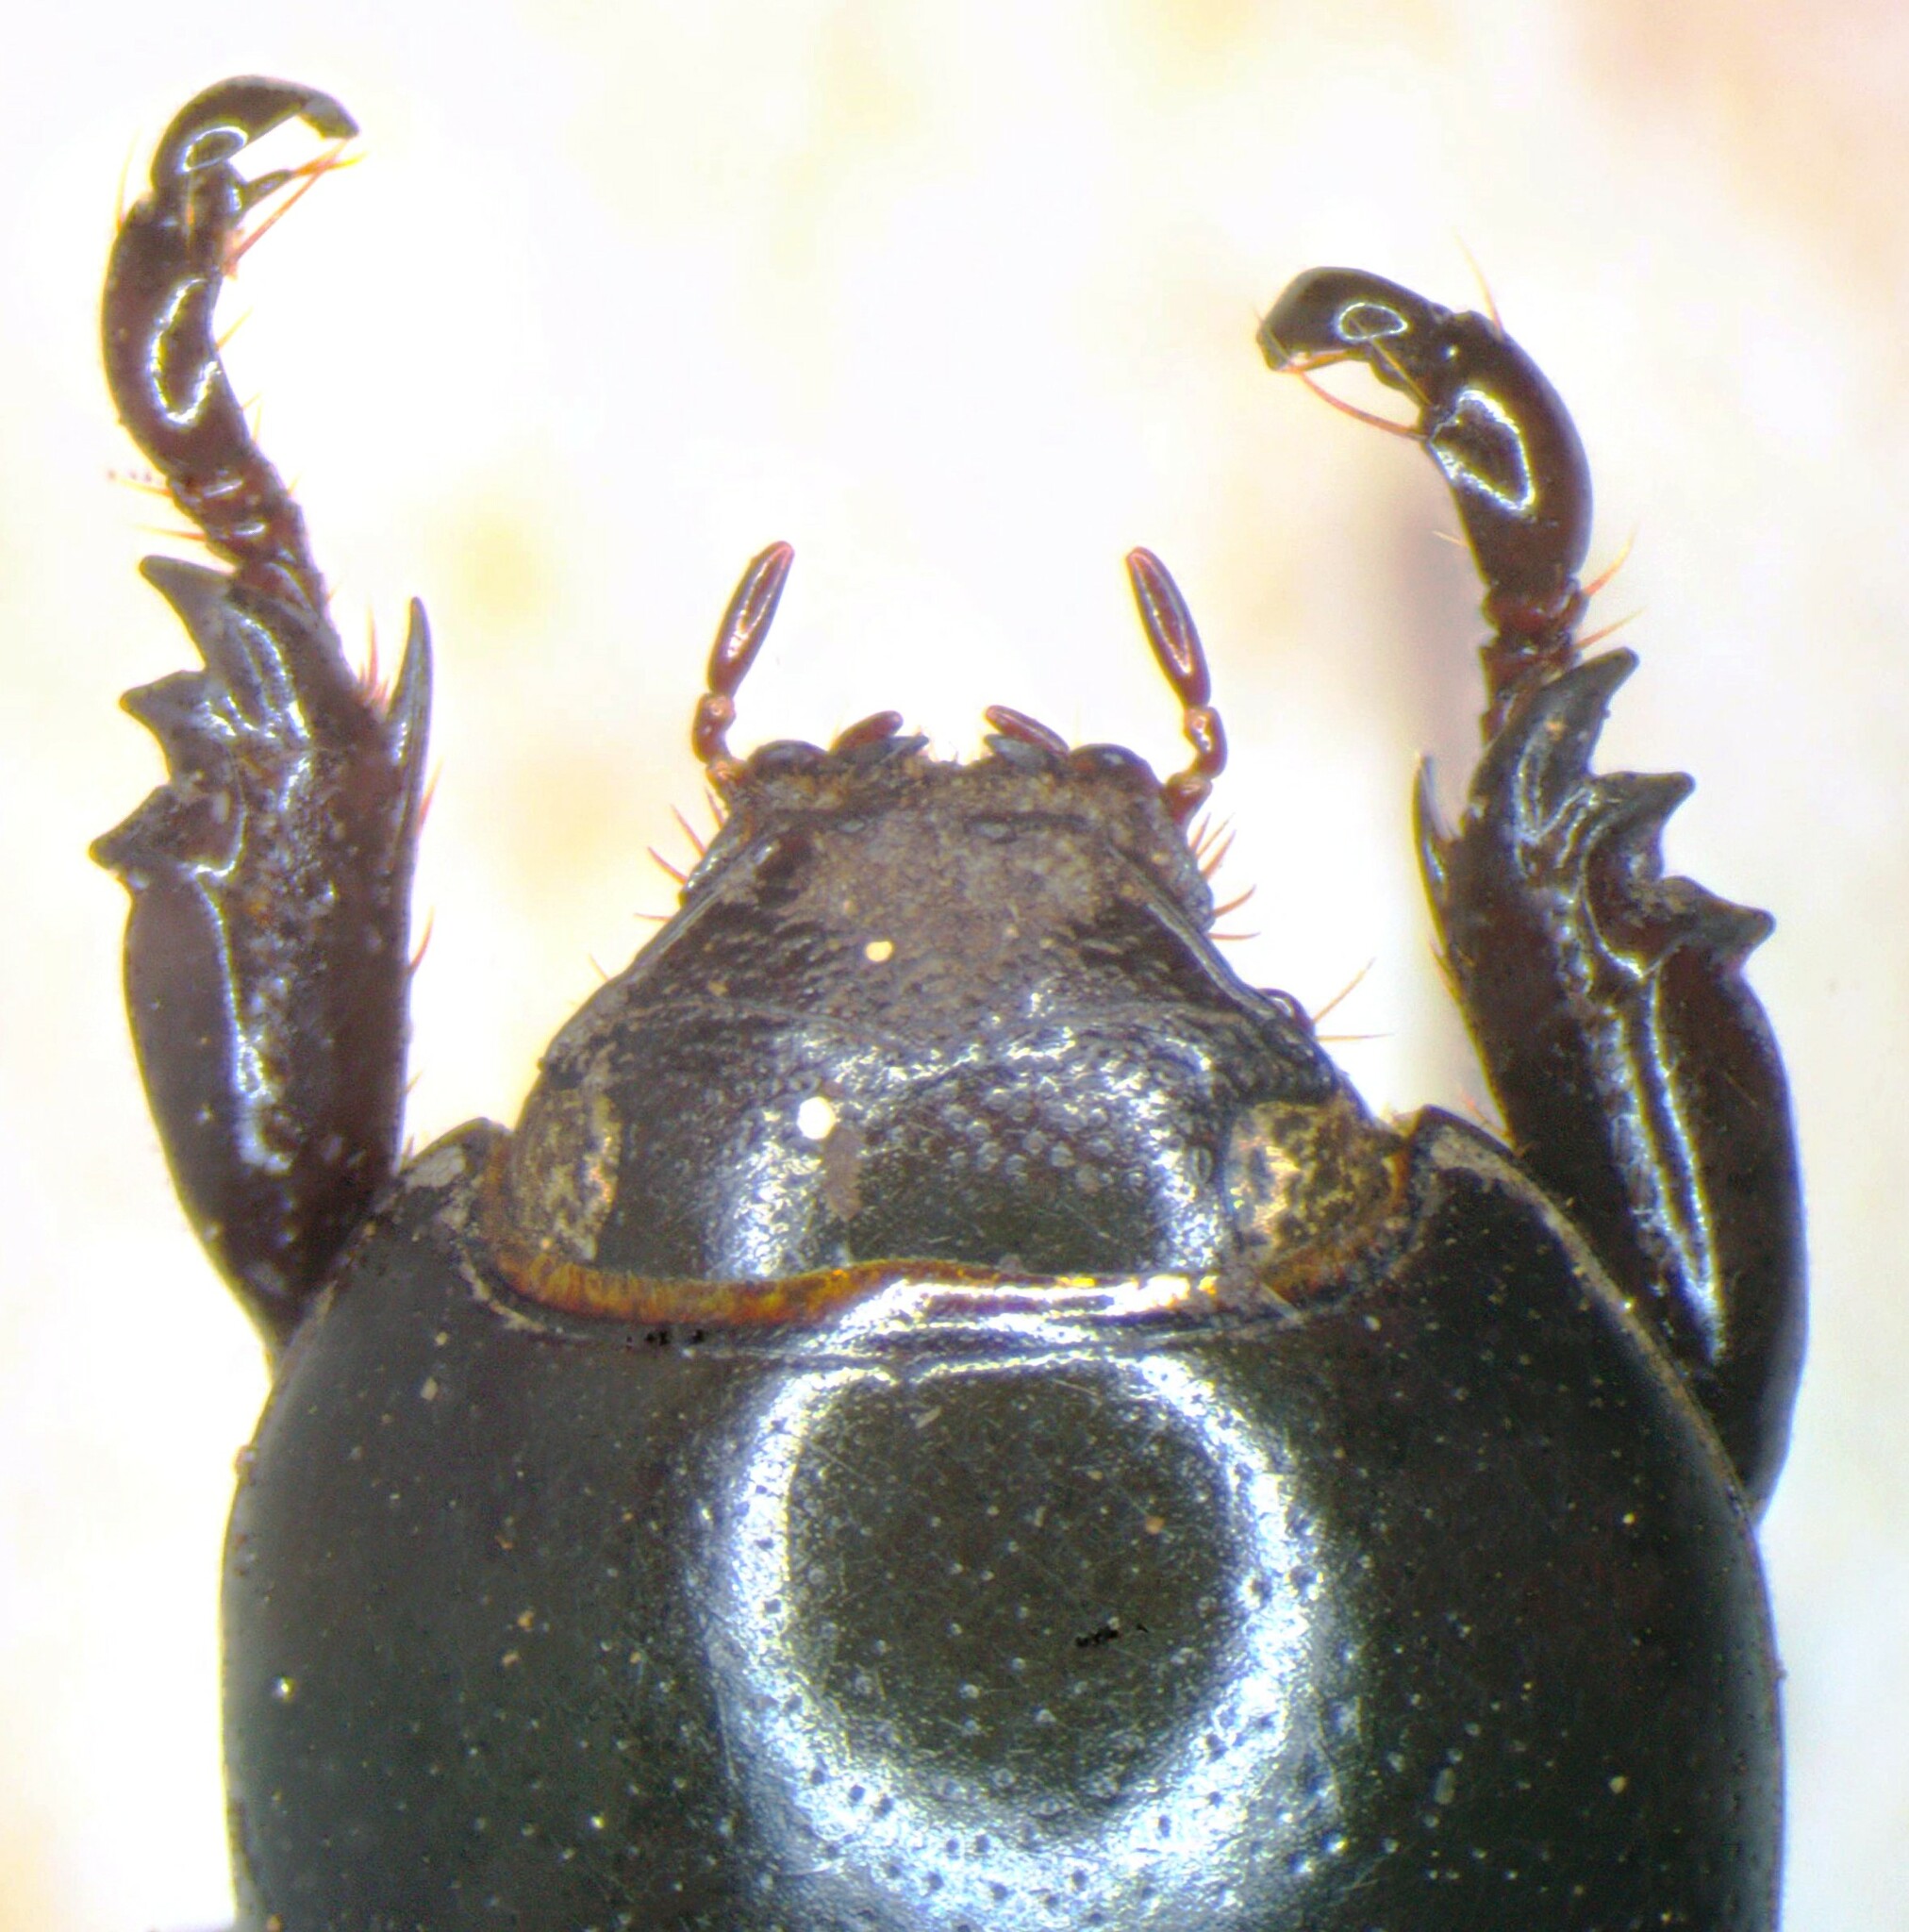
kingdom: Animalia
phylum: Arthropoda
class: Insecta
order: Coleoptera
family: Scarabaeidae
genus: Euetheola
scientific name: Euetheola bidentata
